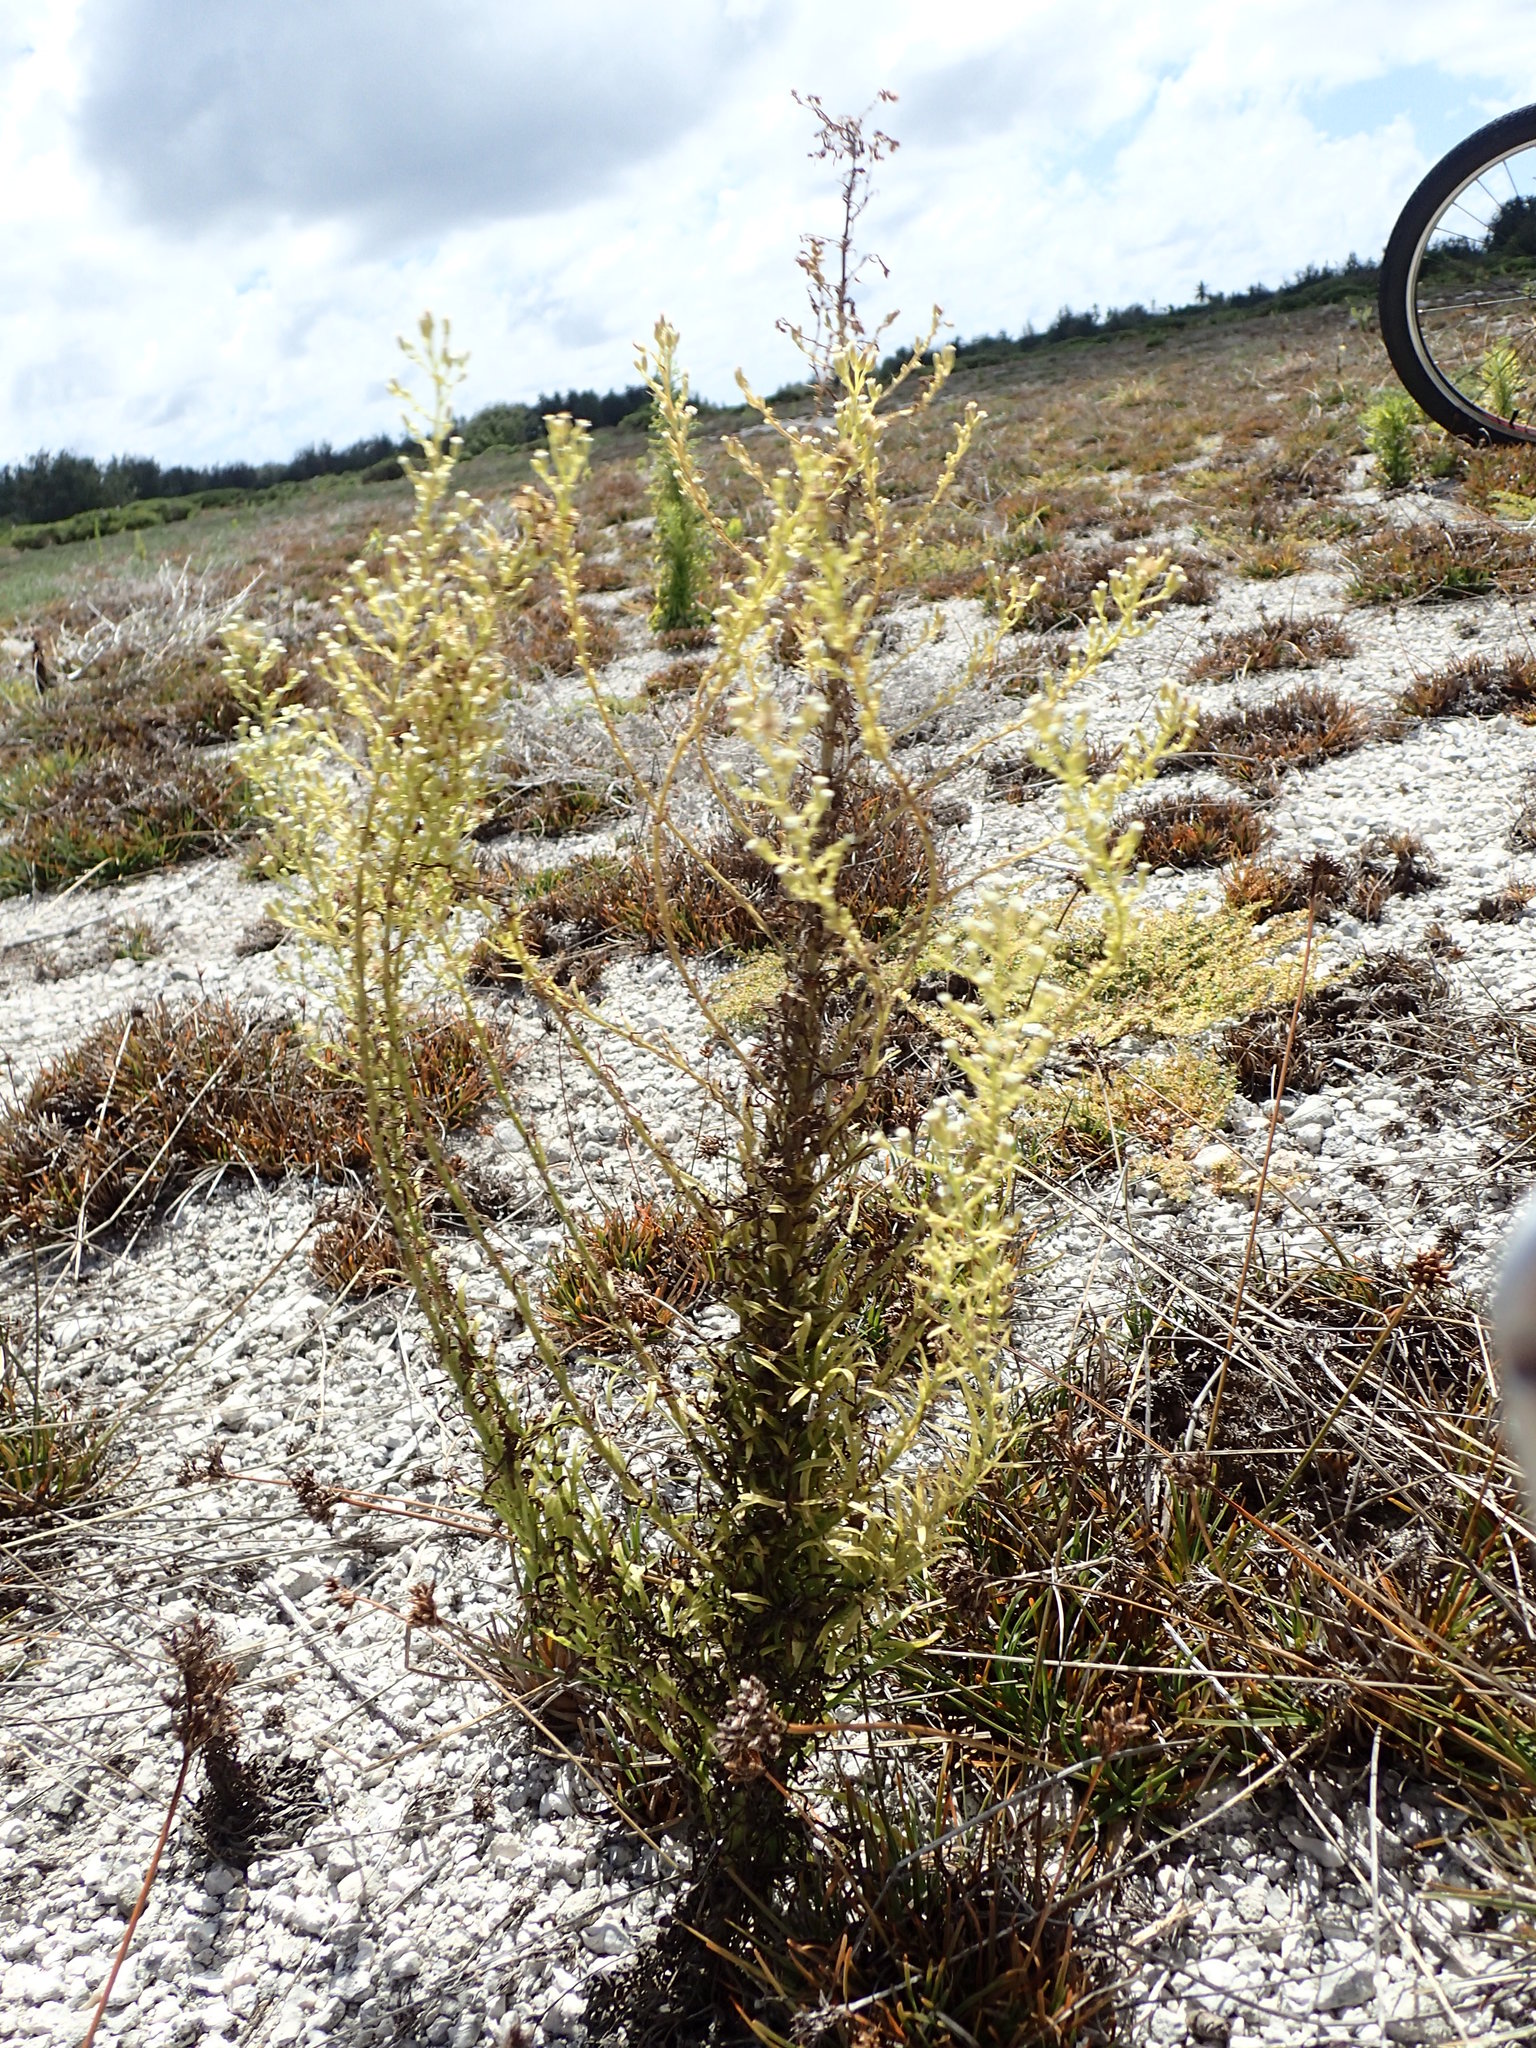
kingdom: Plantae
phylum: Tracheophyta
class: Magnoliopsida
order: Asterales
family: Asteraceae
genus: Erigeron
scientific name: Erigeron canadensis
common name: Canadian fleabane
